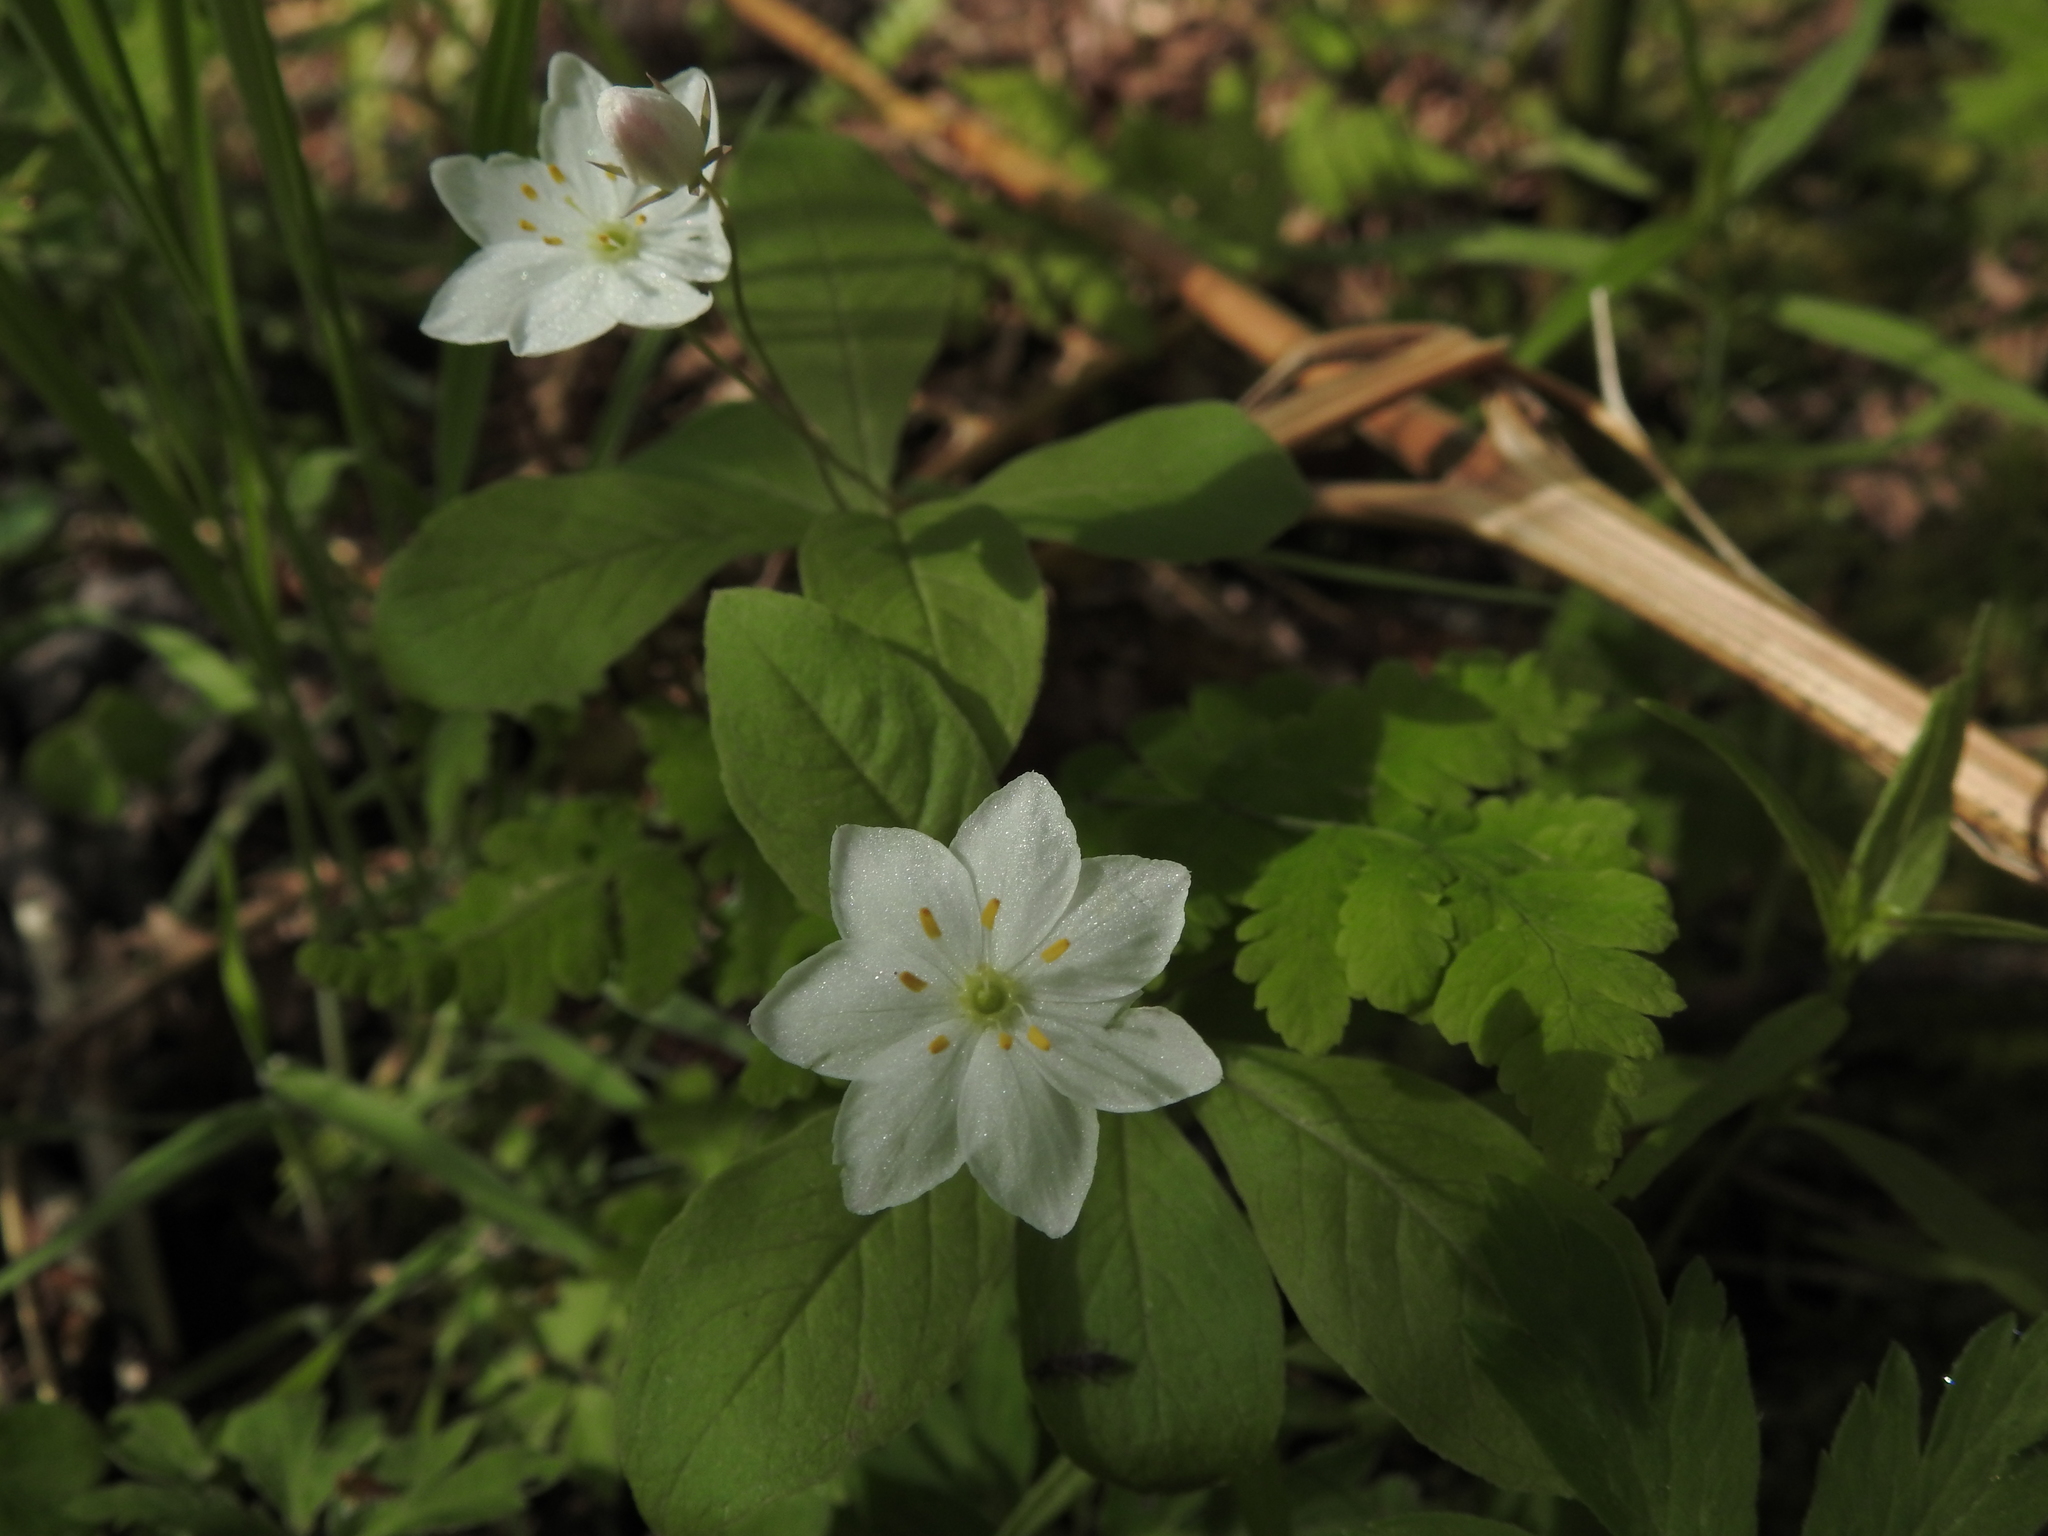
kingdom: Plantae
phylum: Tracheophyta
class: Magnoliopsida
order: Ericales
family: Primulaceae
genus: Lysimachia
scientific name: Lysimachia europaea
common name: Arctic starflower
